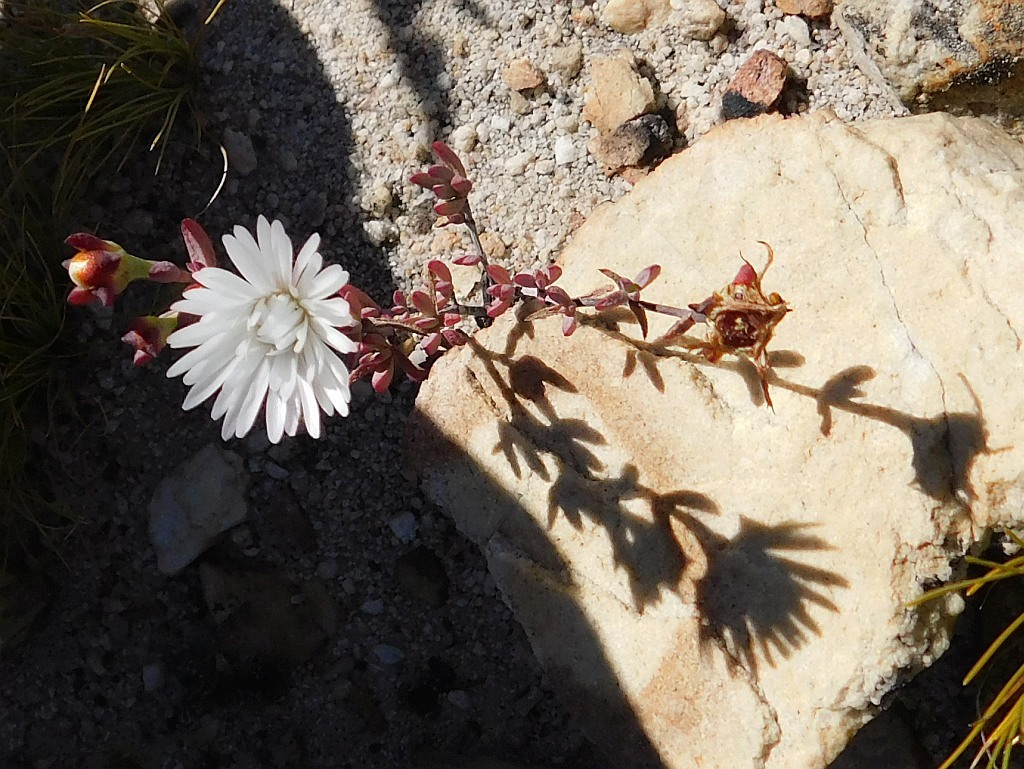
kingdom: Plantae
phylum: Tracheophyta
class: Magnoliopsida
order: Caryophyllales
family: Aizoaceae
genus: Lampranthus
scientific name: Lampranthus falcatus
